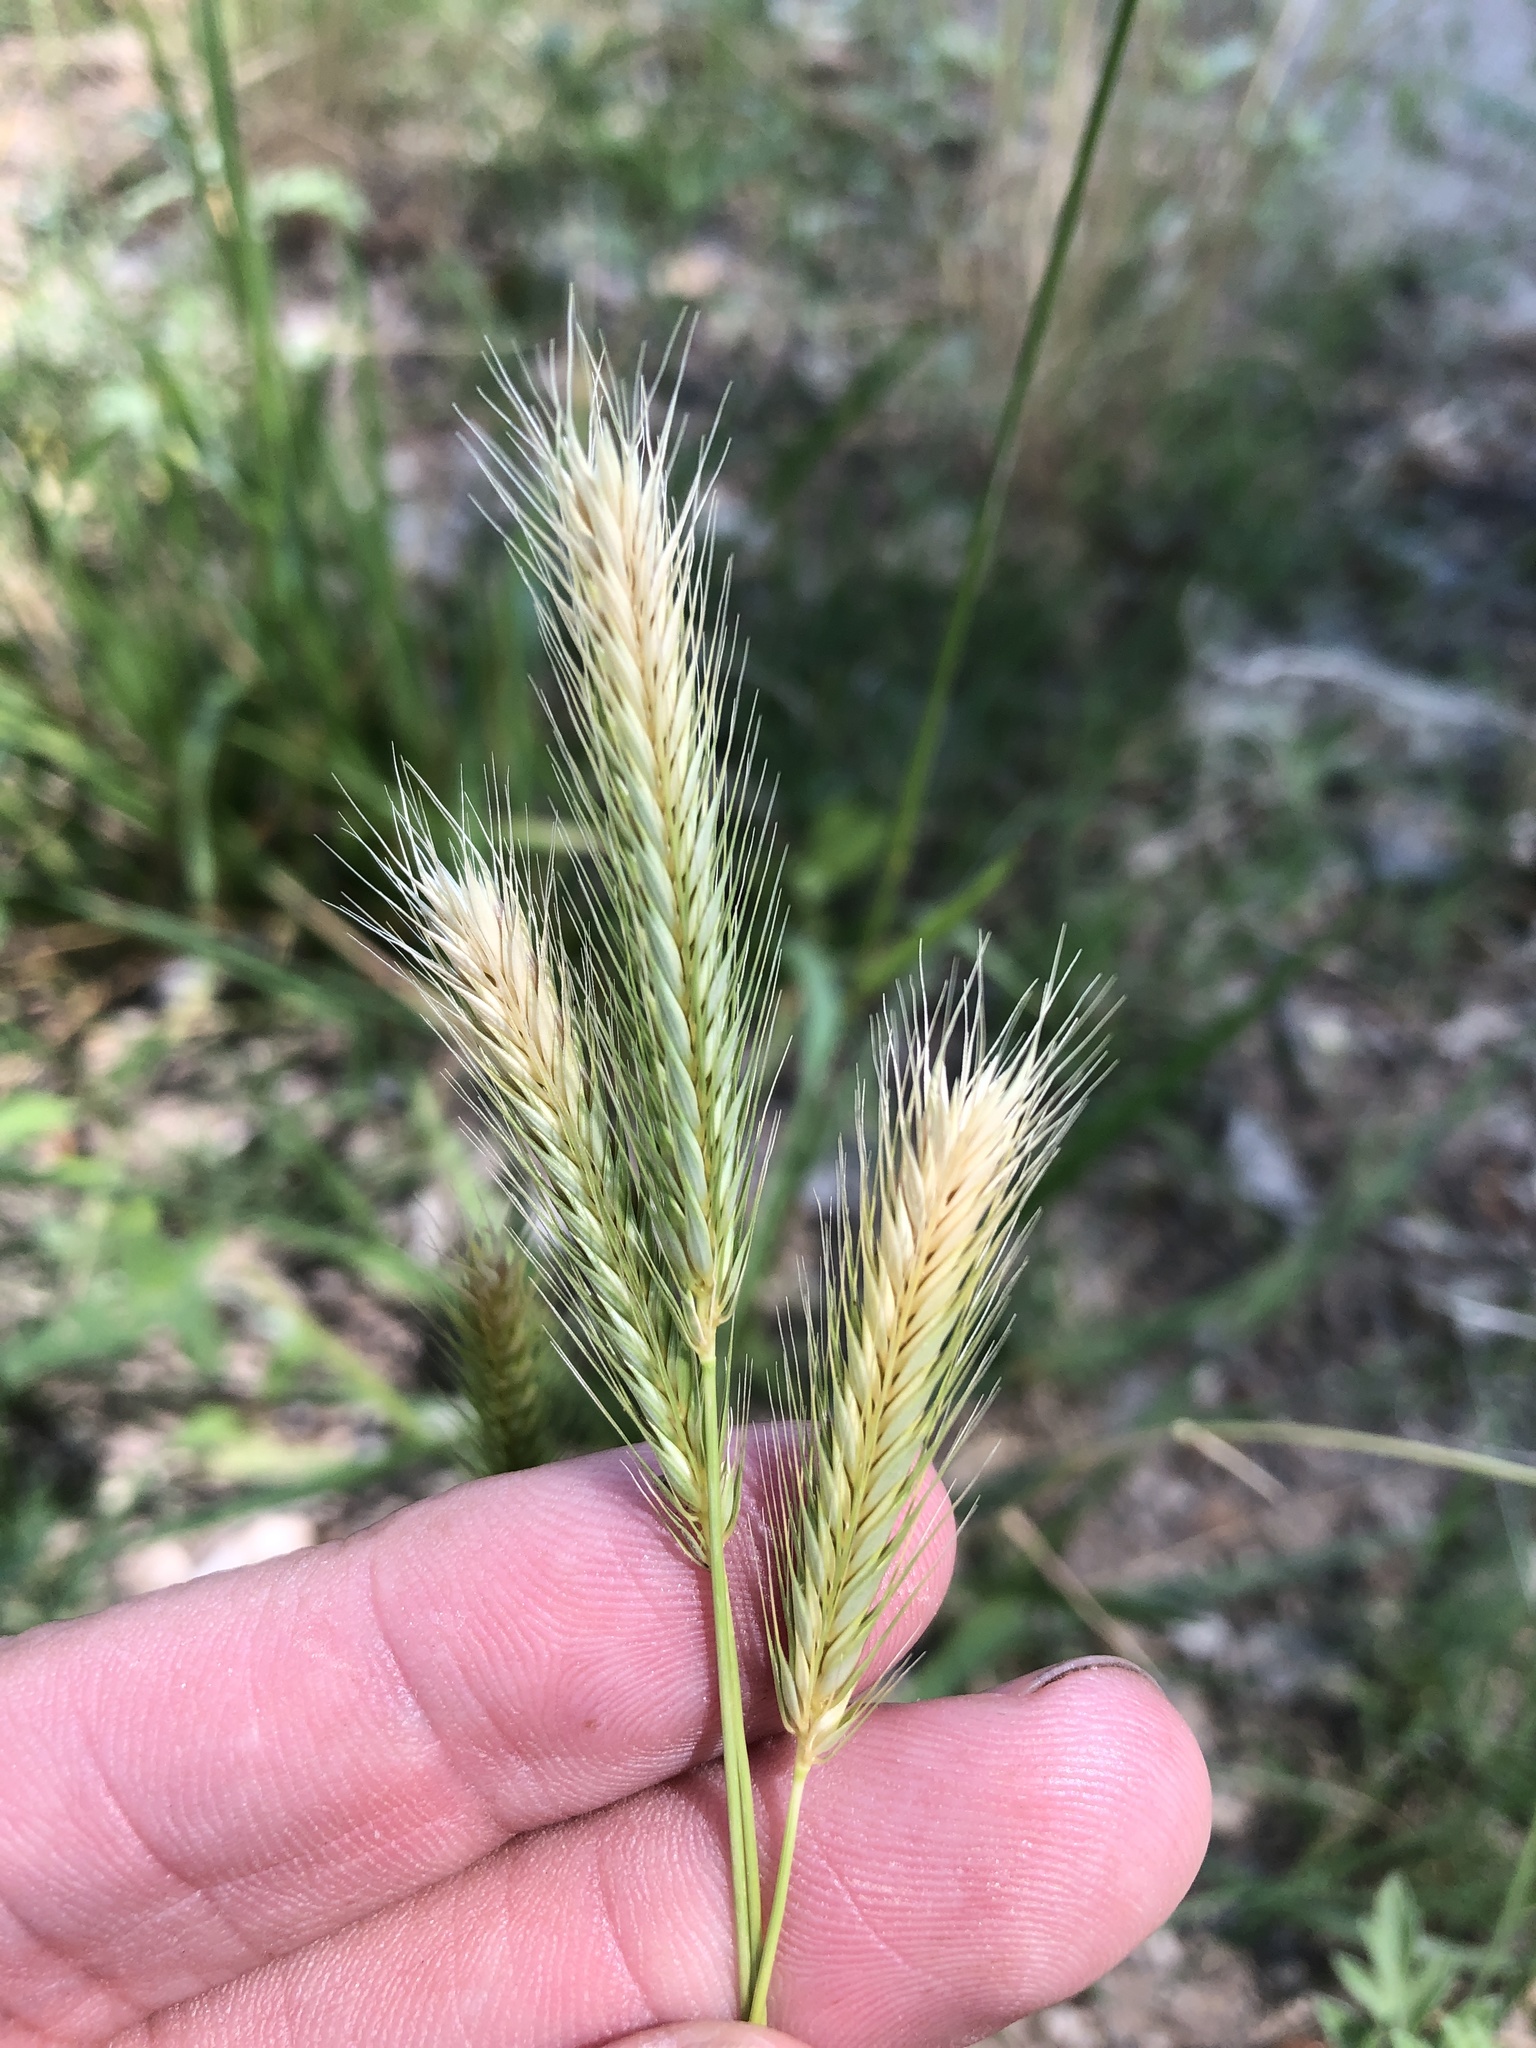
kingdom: Plantae
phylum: Tracheophyta
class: Liliopsida
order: Poales
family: Poaceae
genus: Hordeum
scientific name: Hordeum pusillum
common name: Little barley
